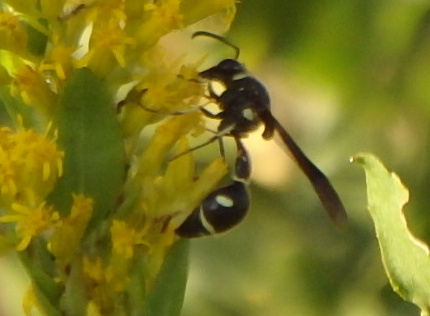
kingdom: Animalia
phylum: Arthropoda
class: Insecta
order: Hymenoptera
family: Vespidae
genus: Eumenes
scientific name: Eumenes fraternus
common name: Fraternal potter wasp
